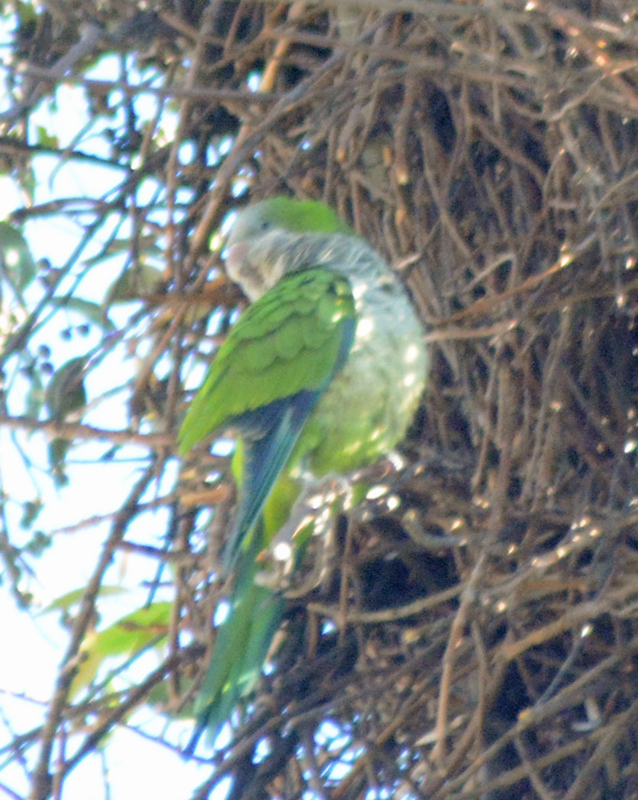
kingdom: Animalia
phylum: Chordata
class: Aves
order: Psittaciformes
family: Psittacidae
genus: Myiopsitta
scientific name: Myiopsitta monachus
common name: Monk parakeet
